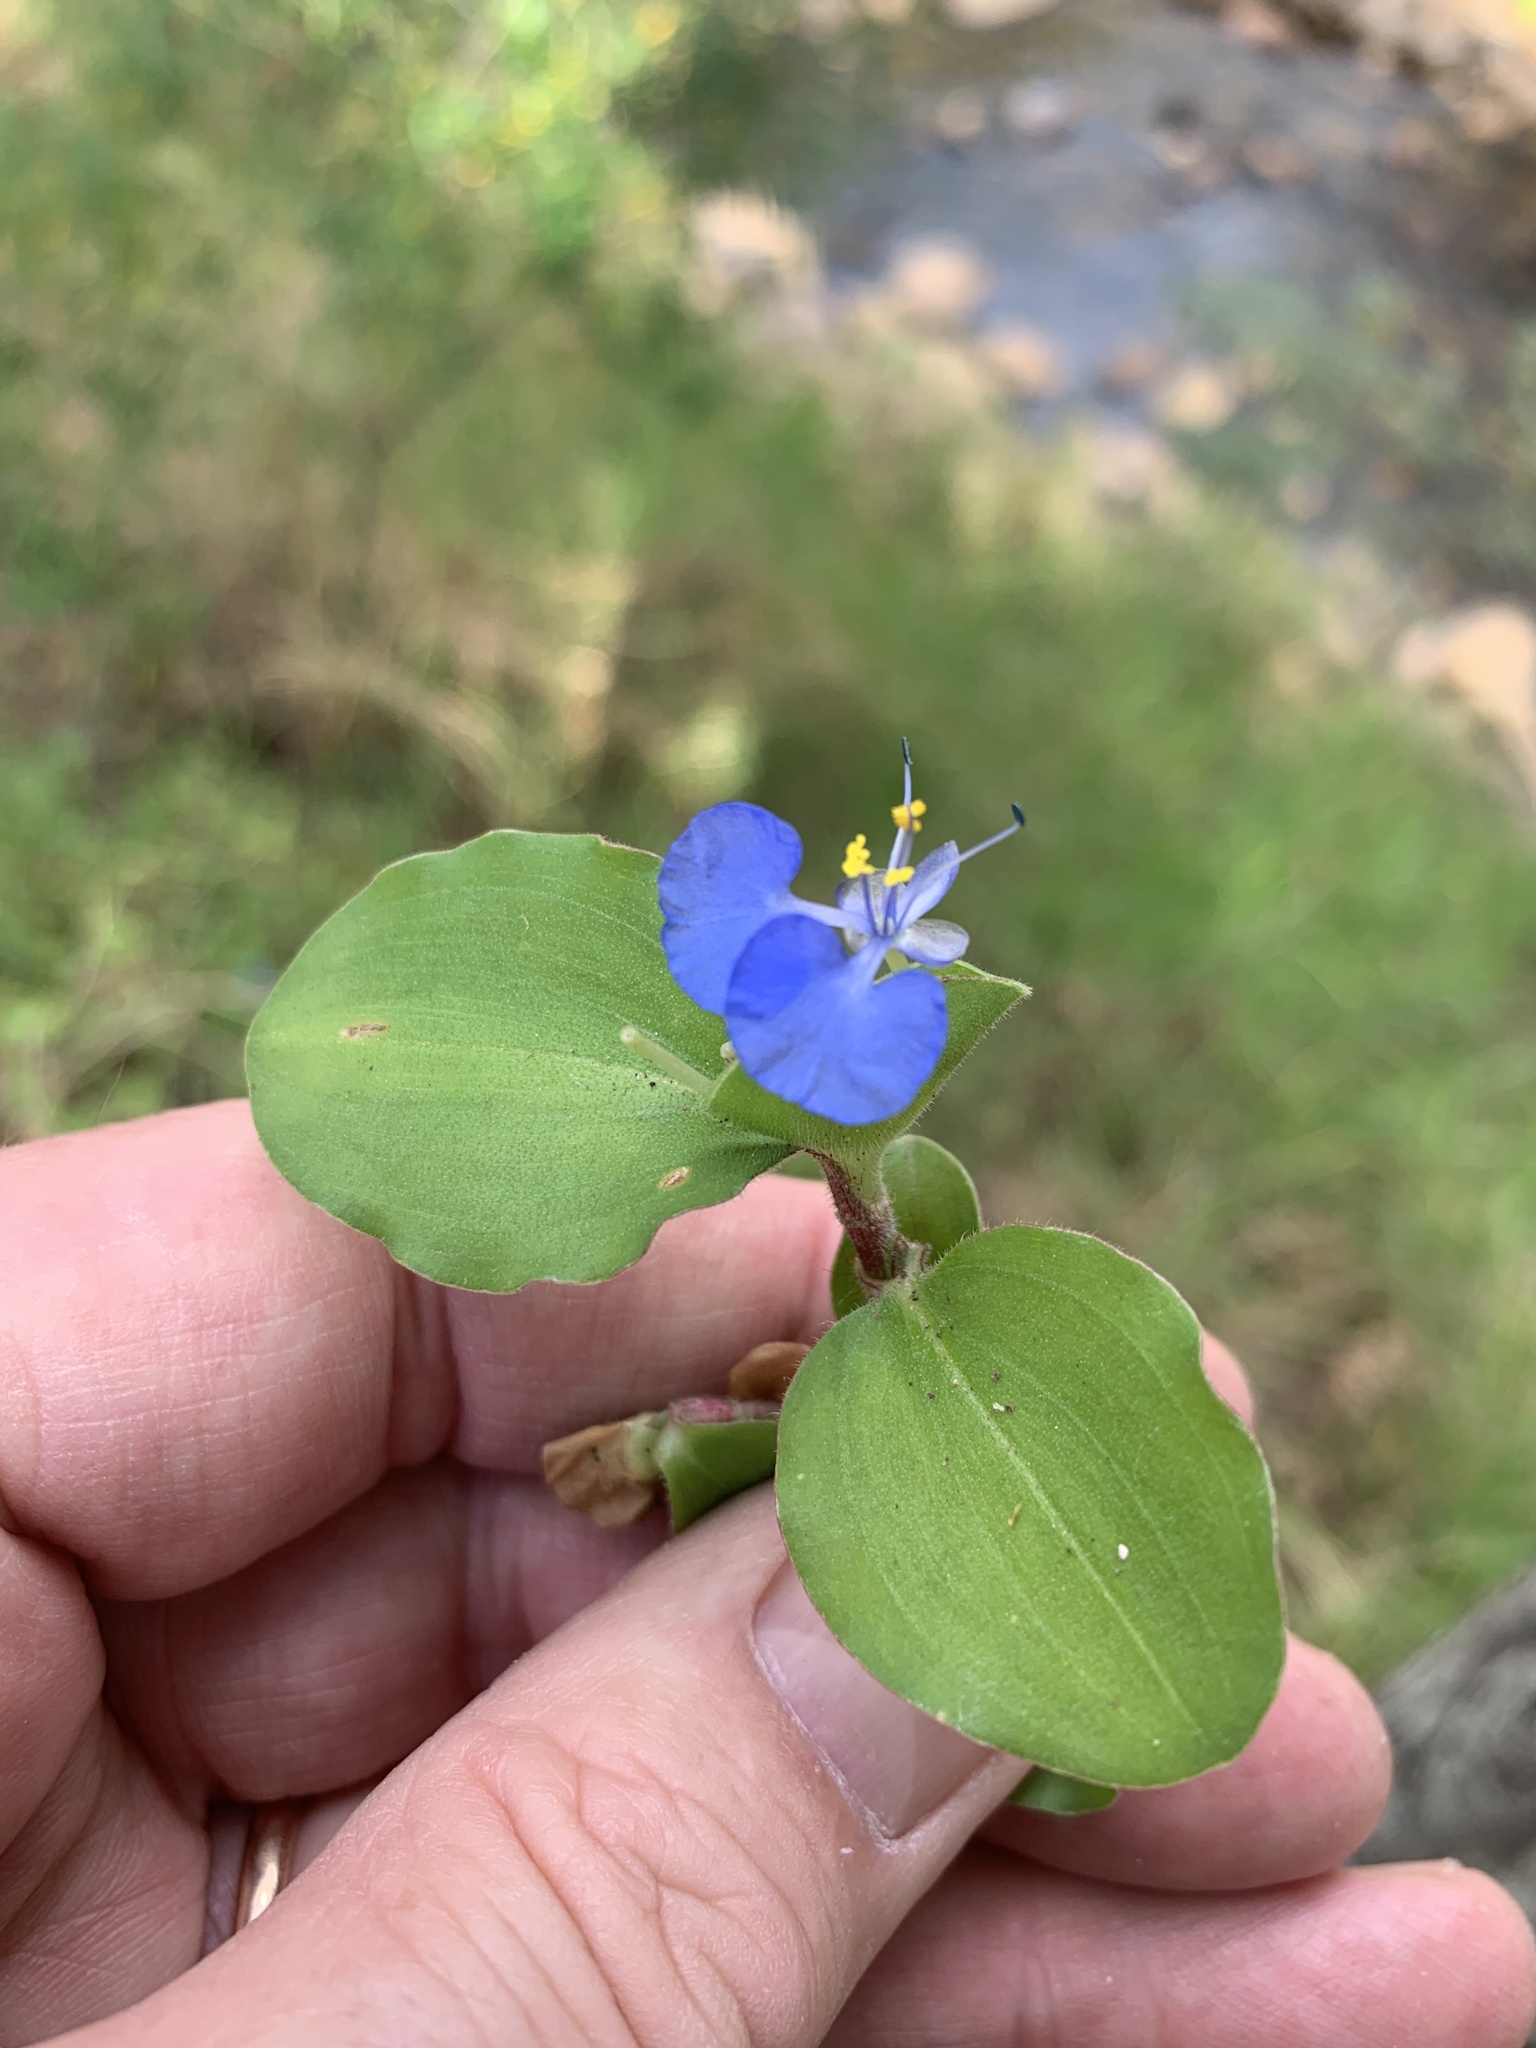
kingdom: Plantae
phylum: Tracheophyta
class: Liliopsida
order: Commelinales
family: Commelinaceae
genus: Commelina
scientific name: Commelina benghalensis
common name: Jio
